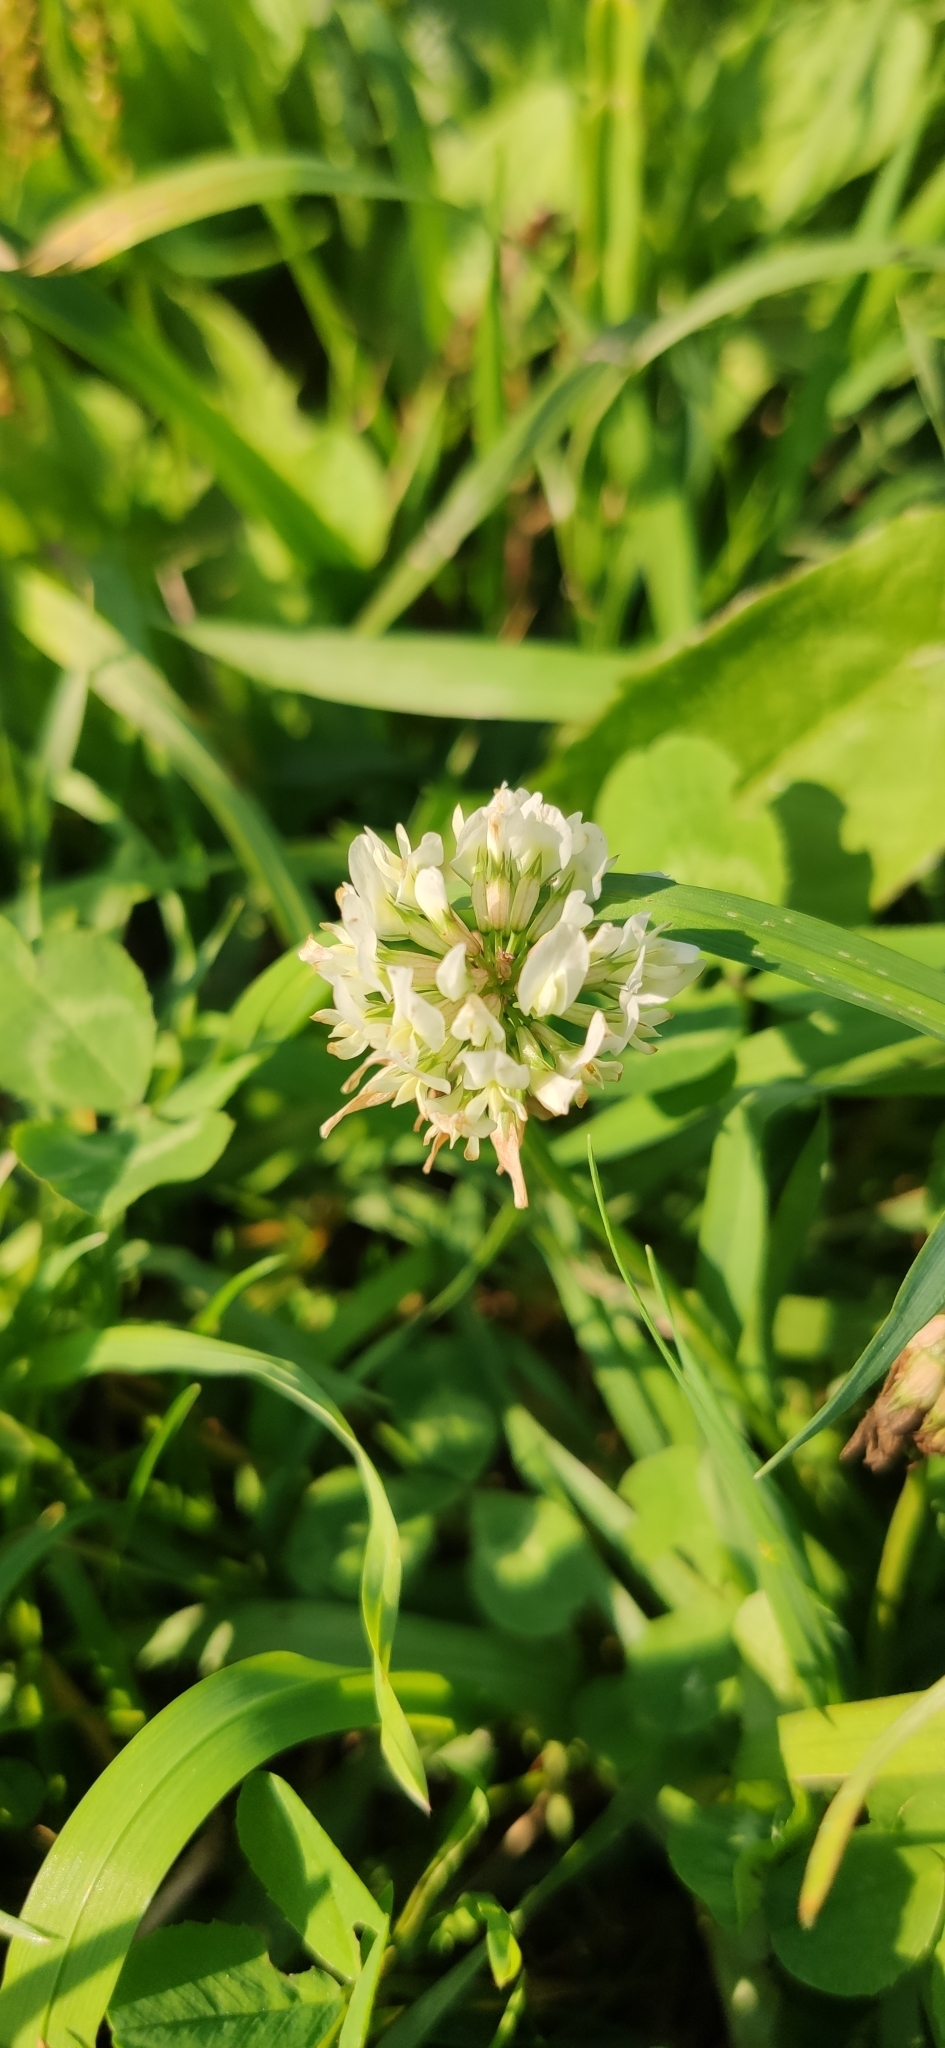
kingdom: Plantae
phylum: Tracheophyta
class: Magnoliopsida
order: Fabales
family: Fabaceae
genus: Trifolium
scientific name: Trifolium repens
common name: White clover
